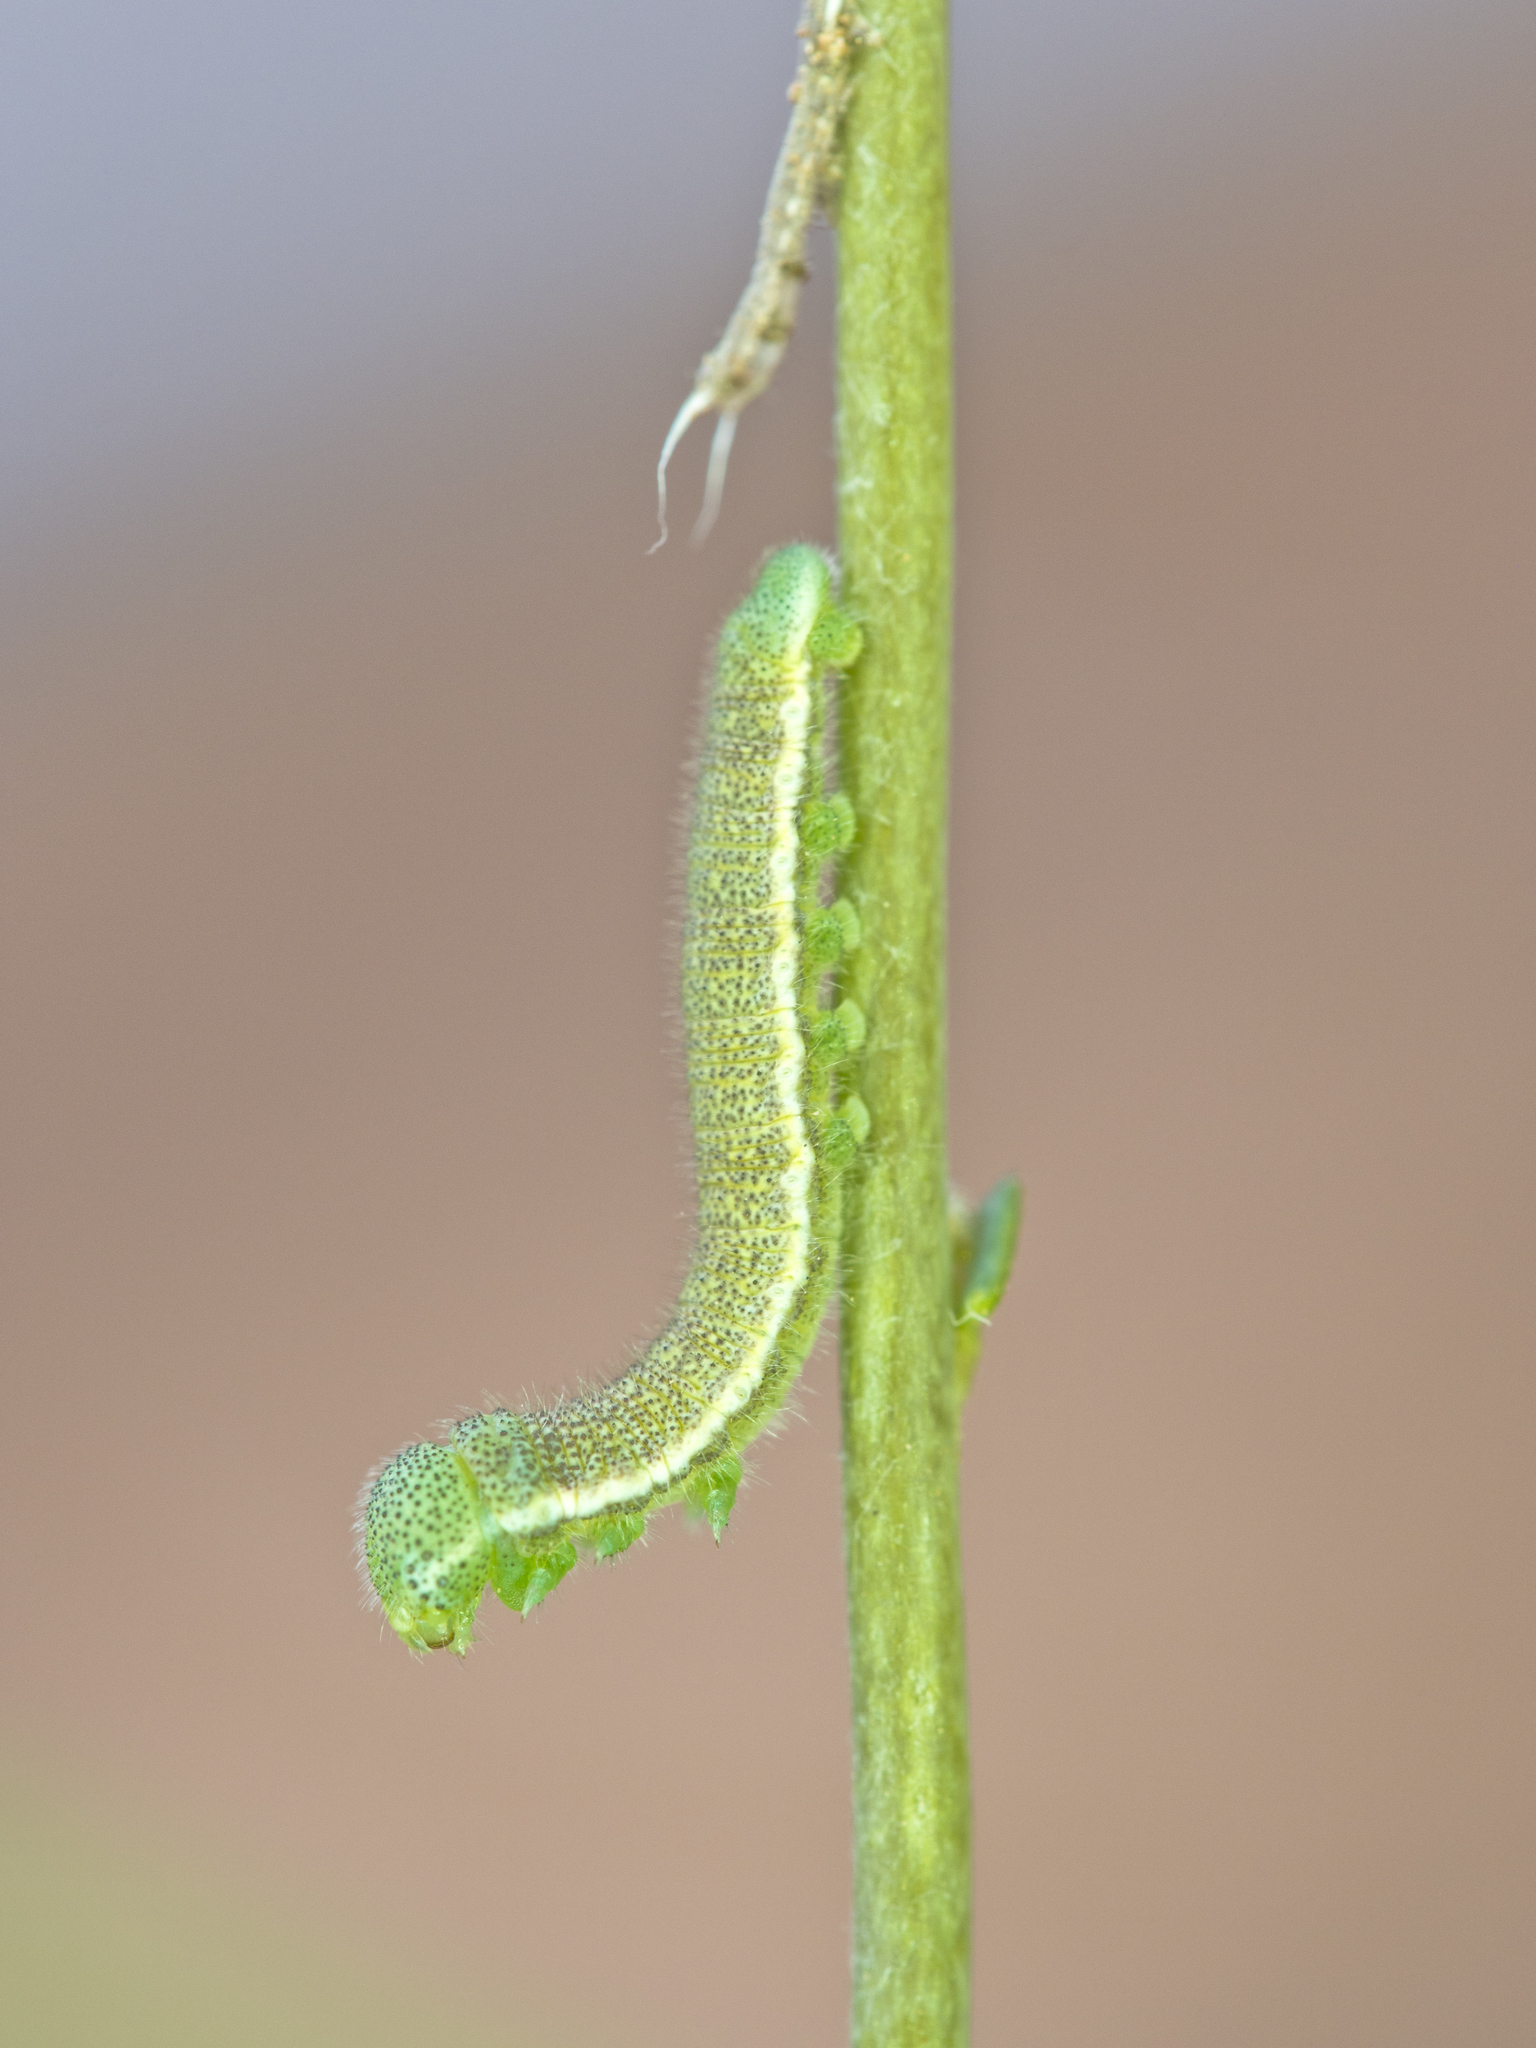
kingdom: Animalia
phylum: Arthropoda
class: Insecta
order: Lepidoptera
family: Pieridae
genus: Anthocharis
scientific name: Anthocharis thoosa
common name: Southwestern orangetip
